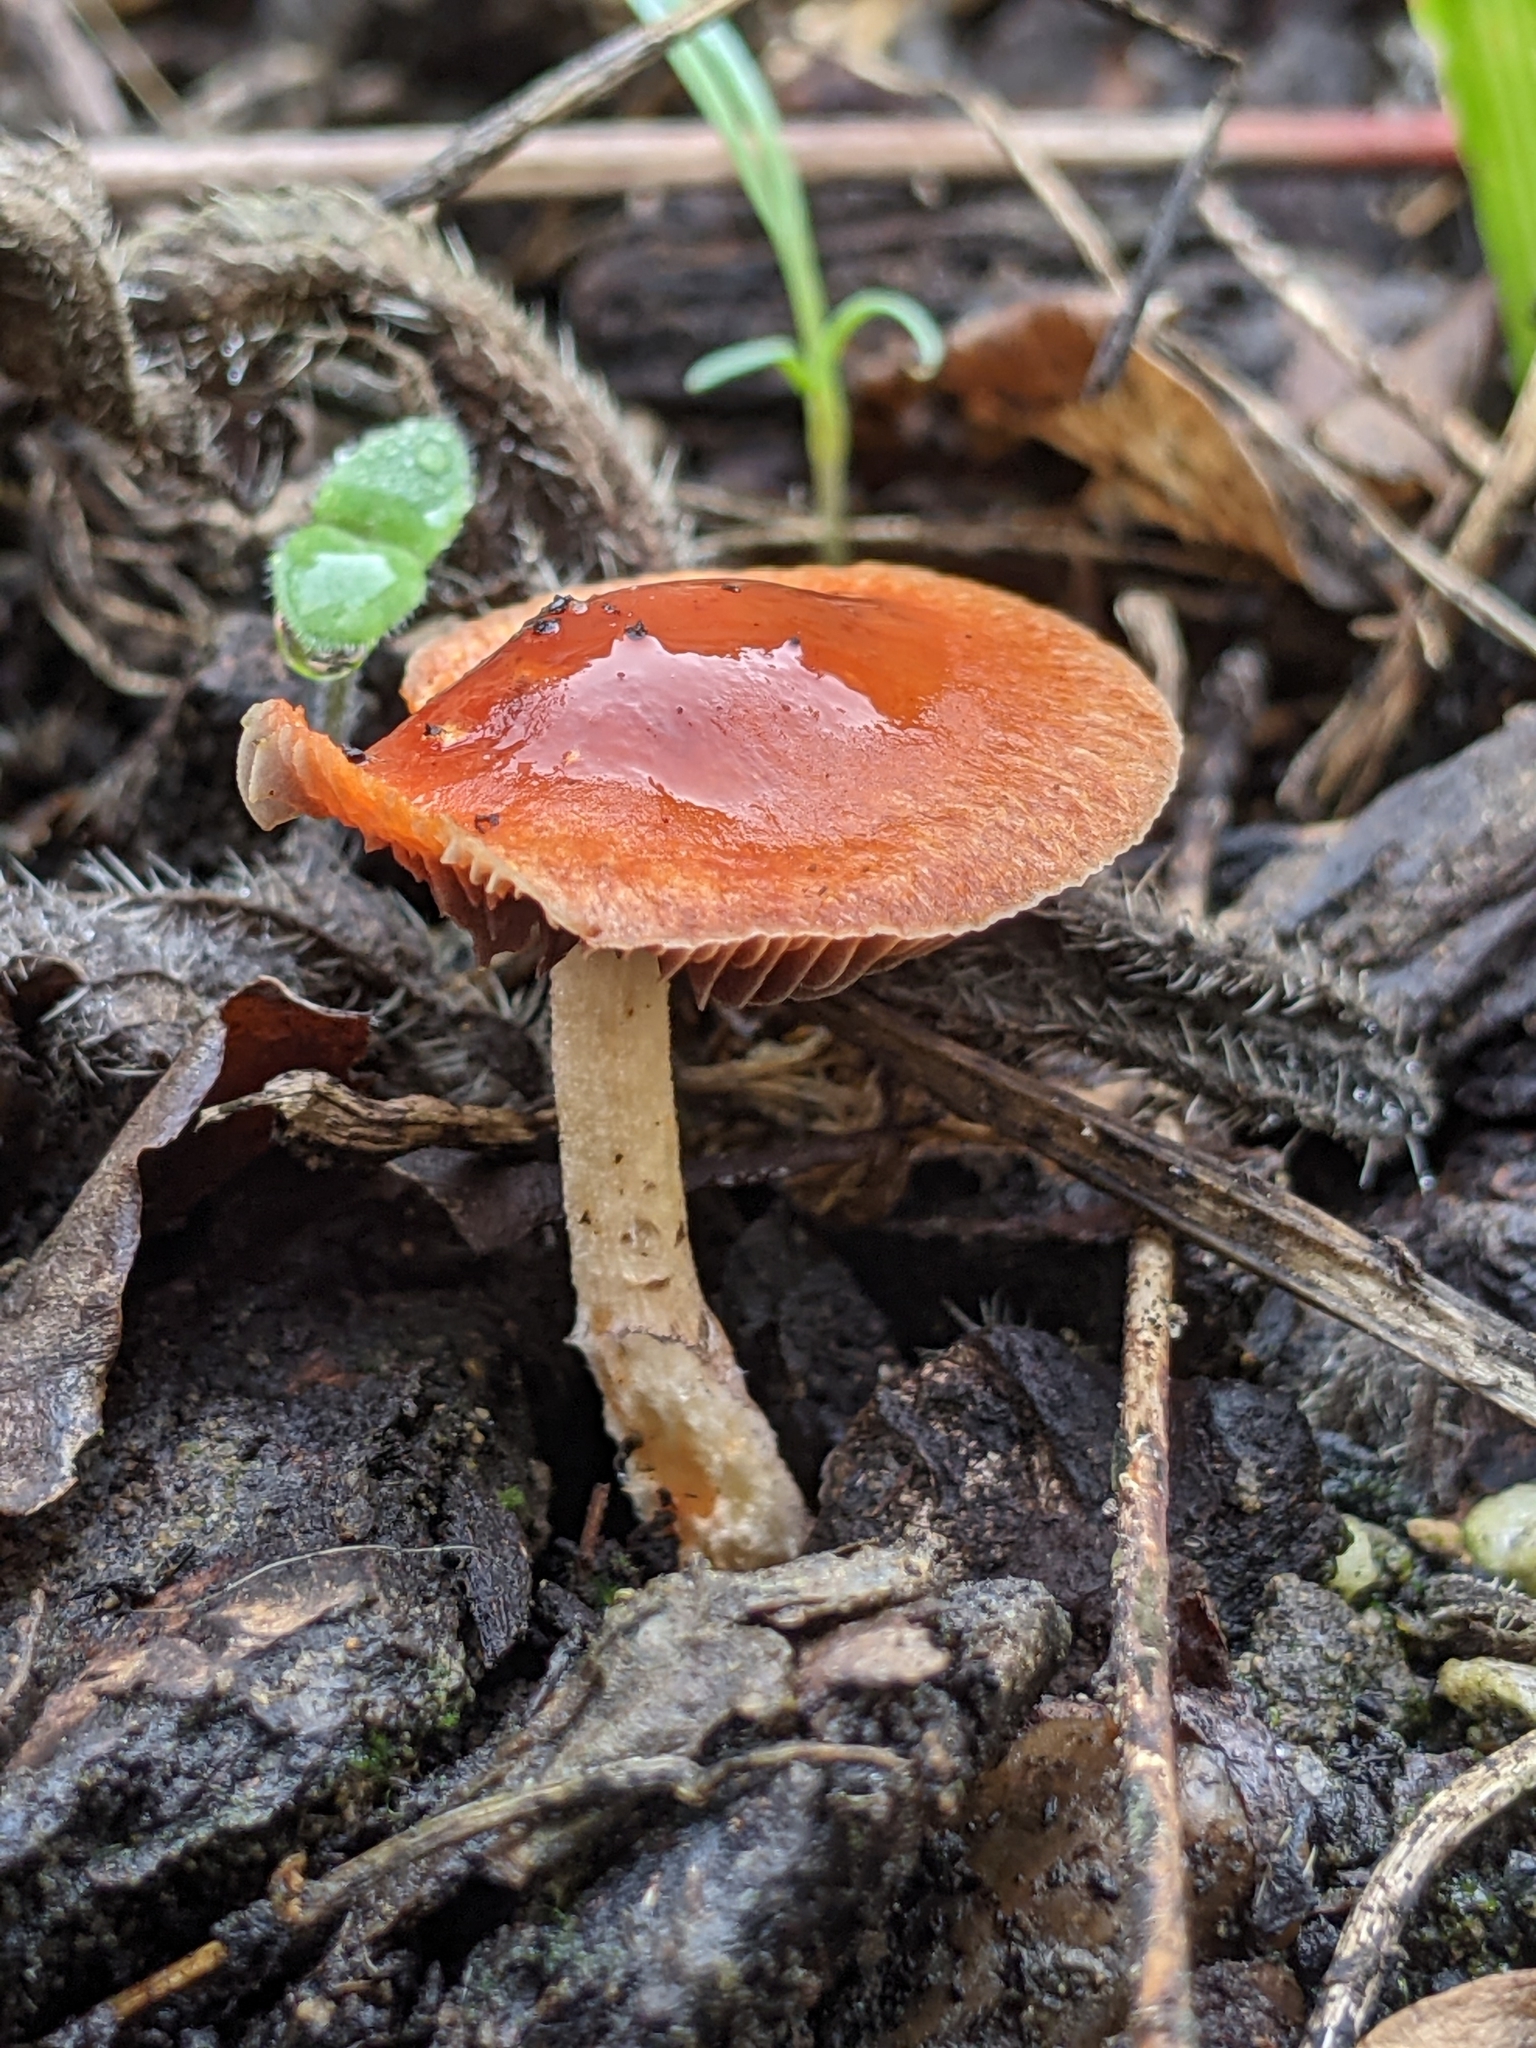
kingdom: Fungi
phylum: Basidiomycota
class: Agaricomycetes
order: Agaricales
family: Strophariaceae
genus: Leratiomyces
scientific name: Leratiomyces ceres
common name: Redlead roundhead
